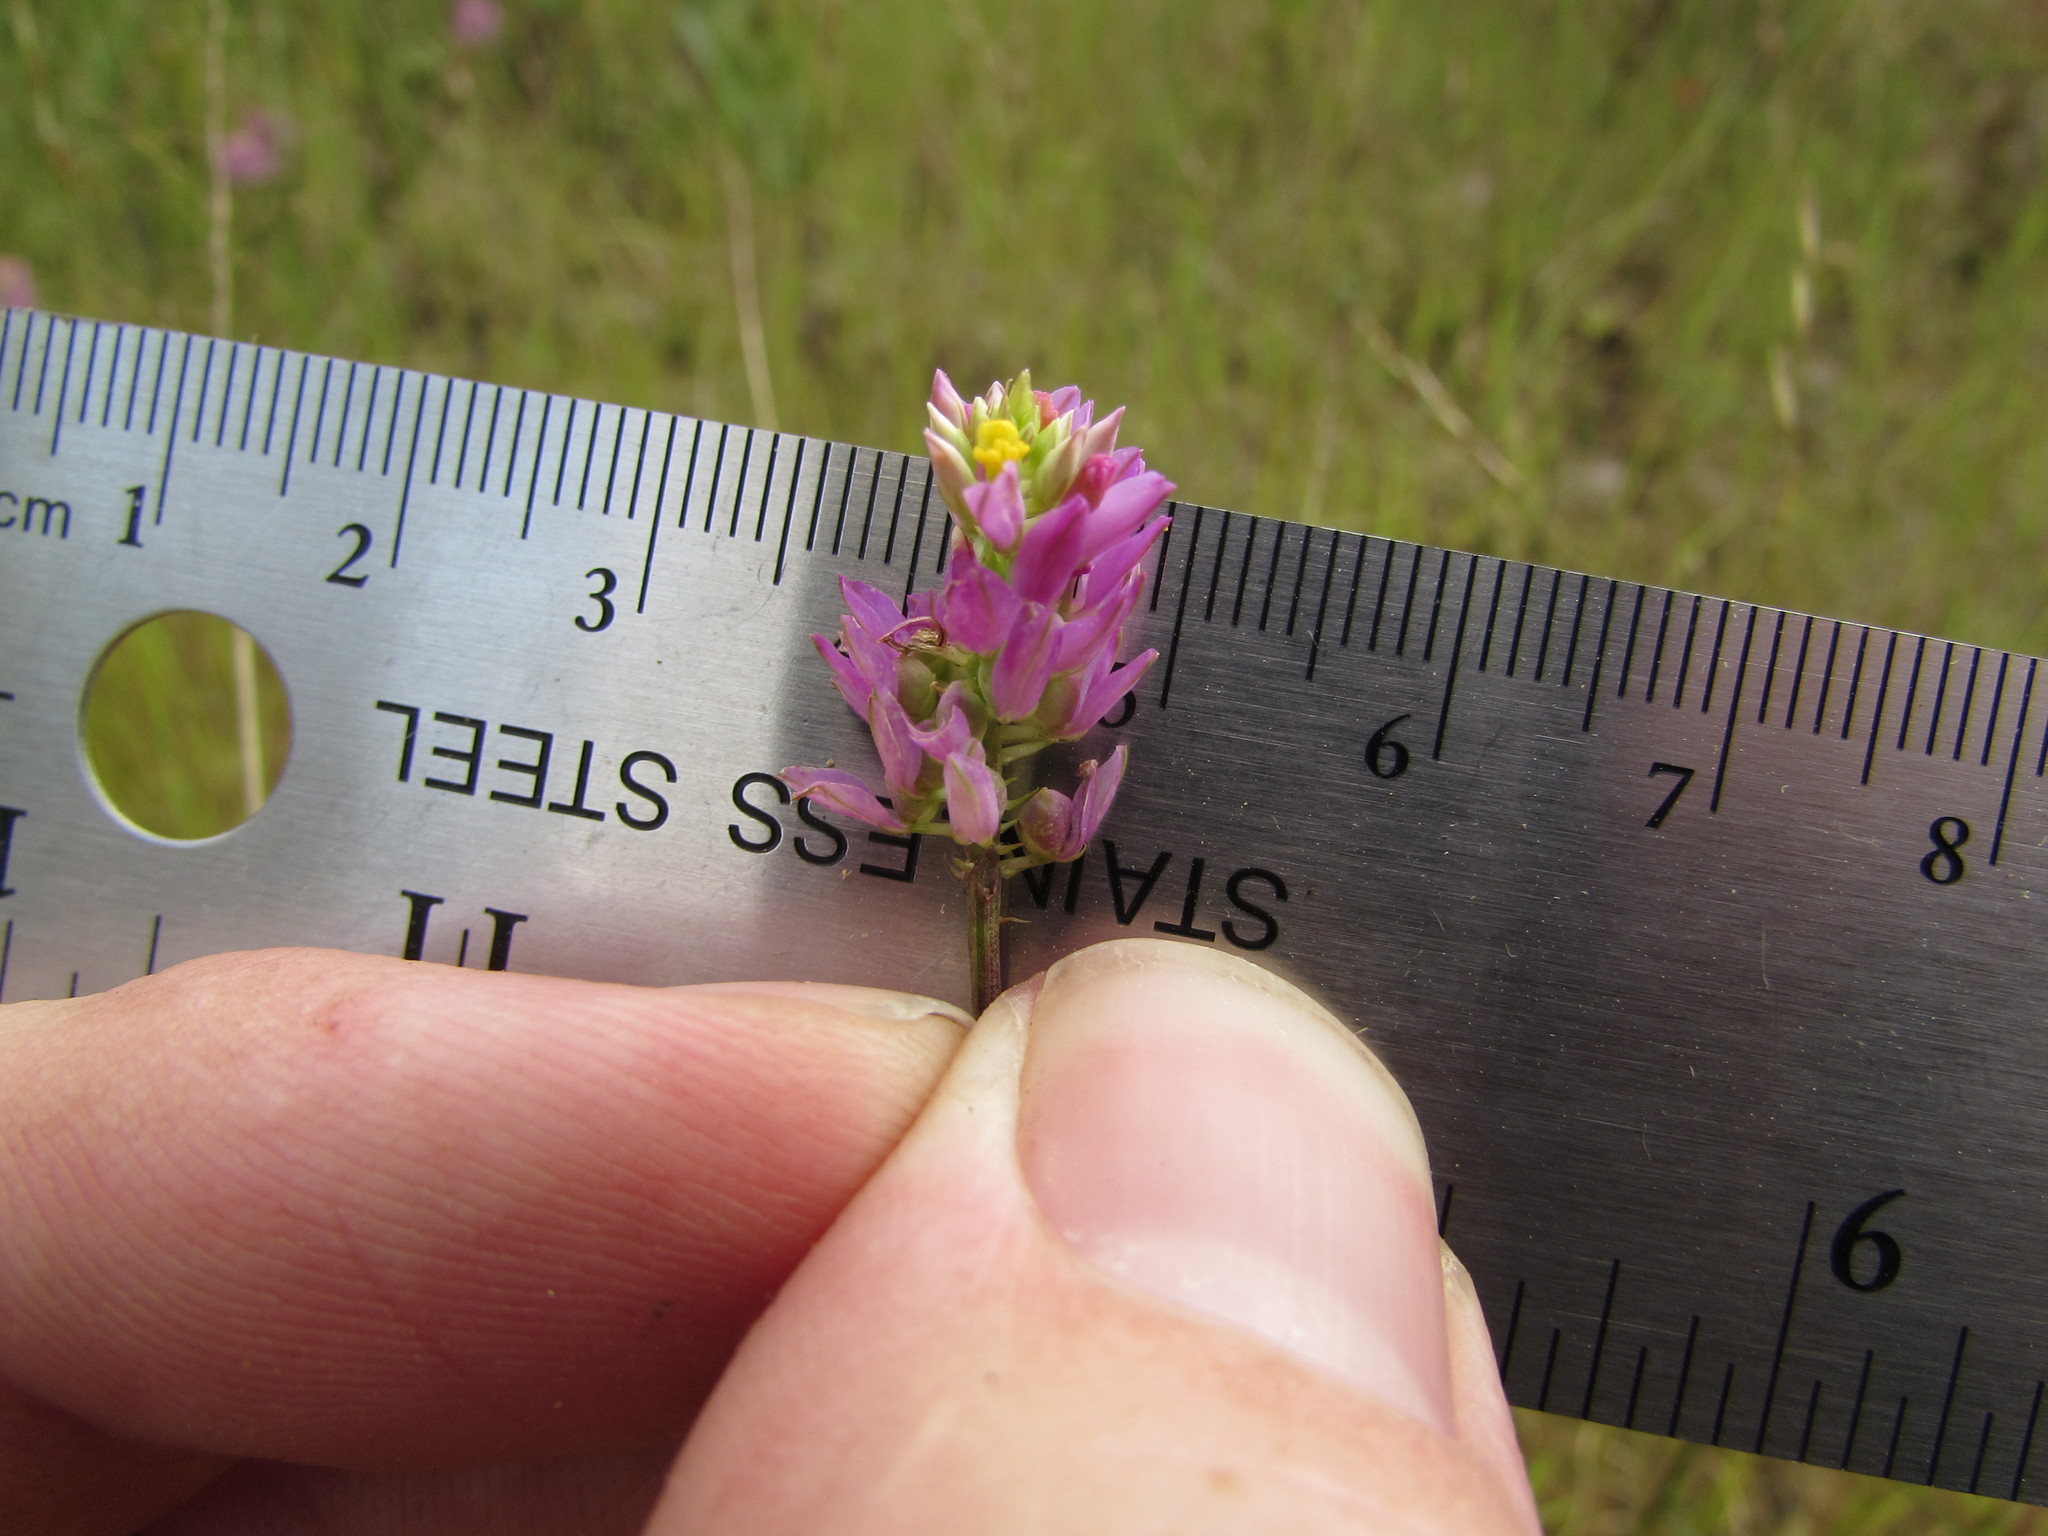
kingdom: Plantae
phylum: Tracheophyta
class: Magnoliopsida
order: Fabales
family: Polygalaceae
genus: Polygala
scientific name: Polygala curtissii
